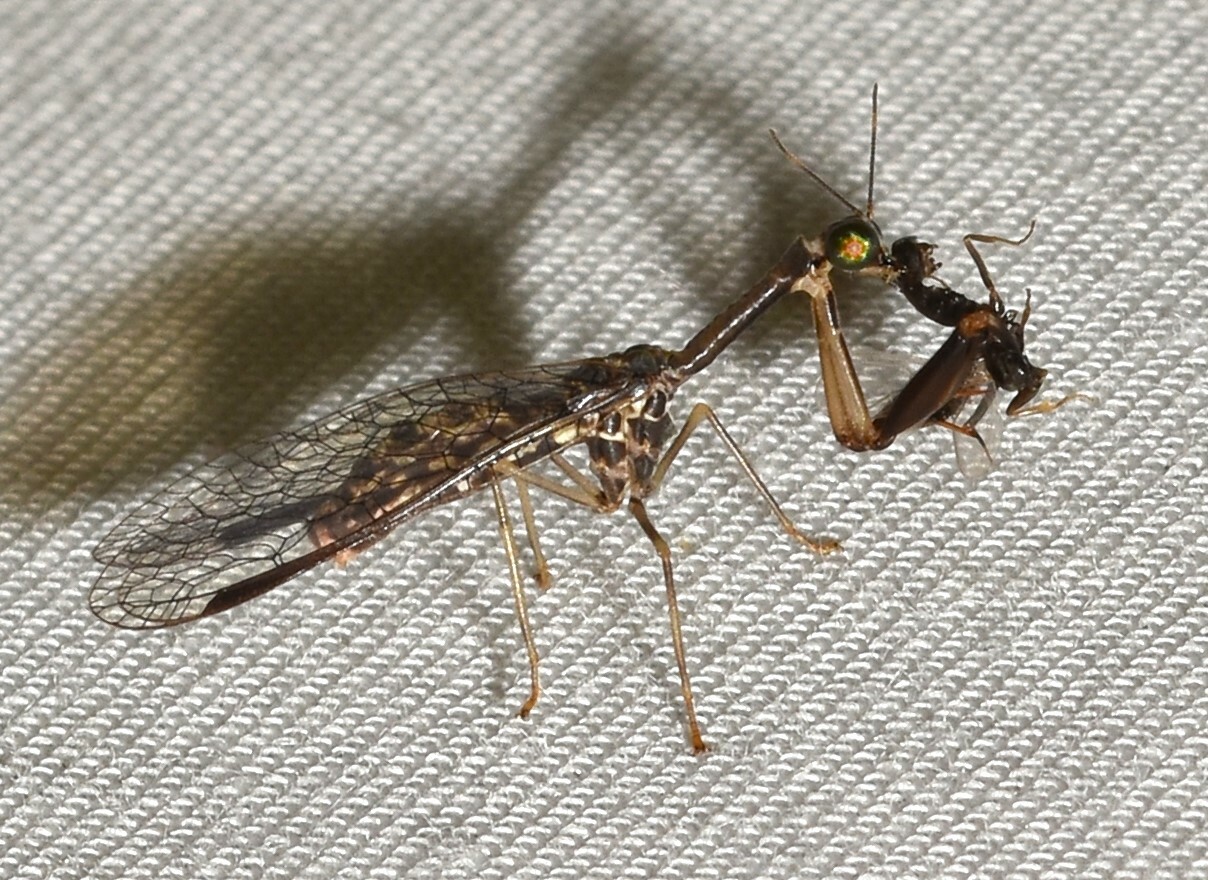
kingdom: Animalia
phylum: Arthropoda
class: Insecta
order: Neuroptera
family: Mantispidae
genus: Dicromantispa
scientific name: Dicromantispa sayi
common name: Say's mantidfly
